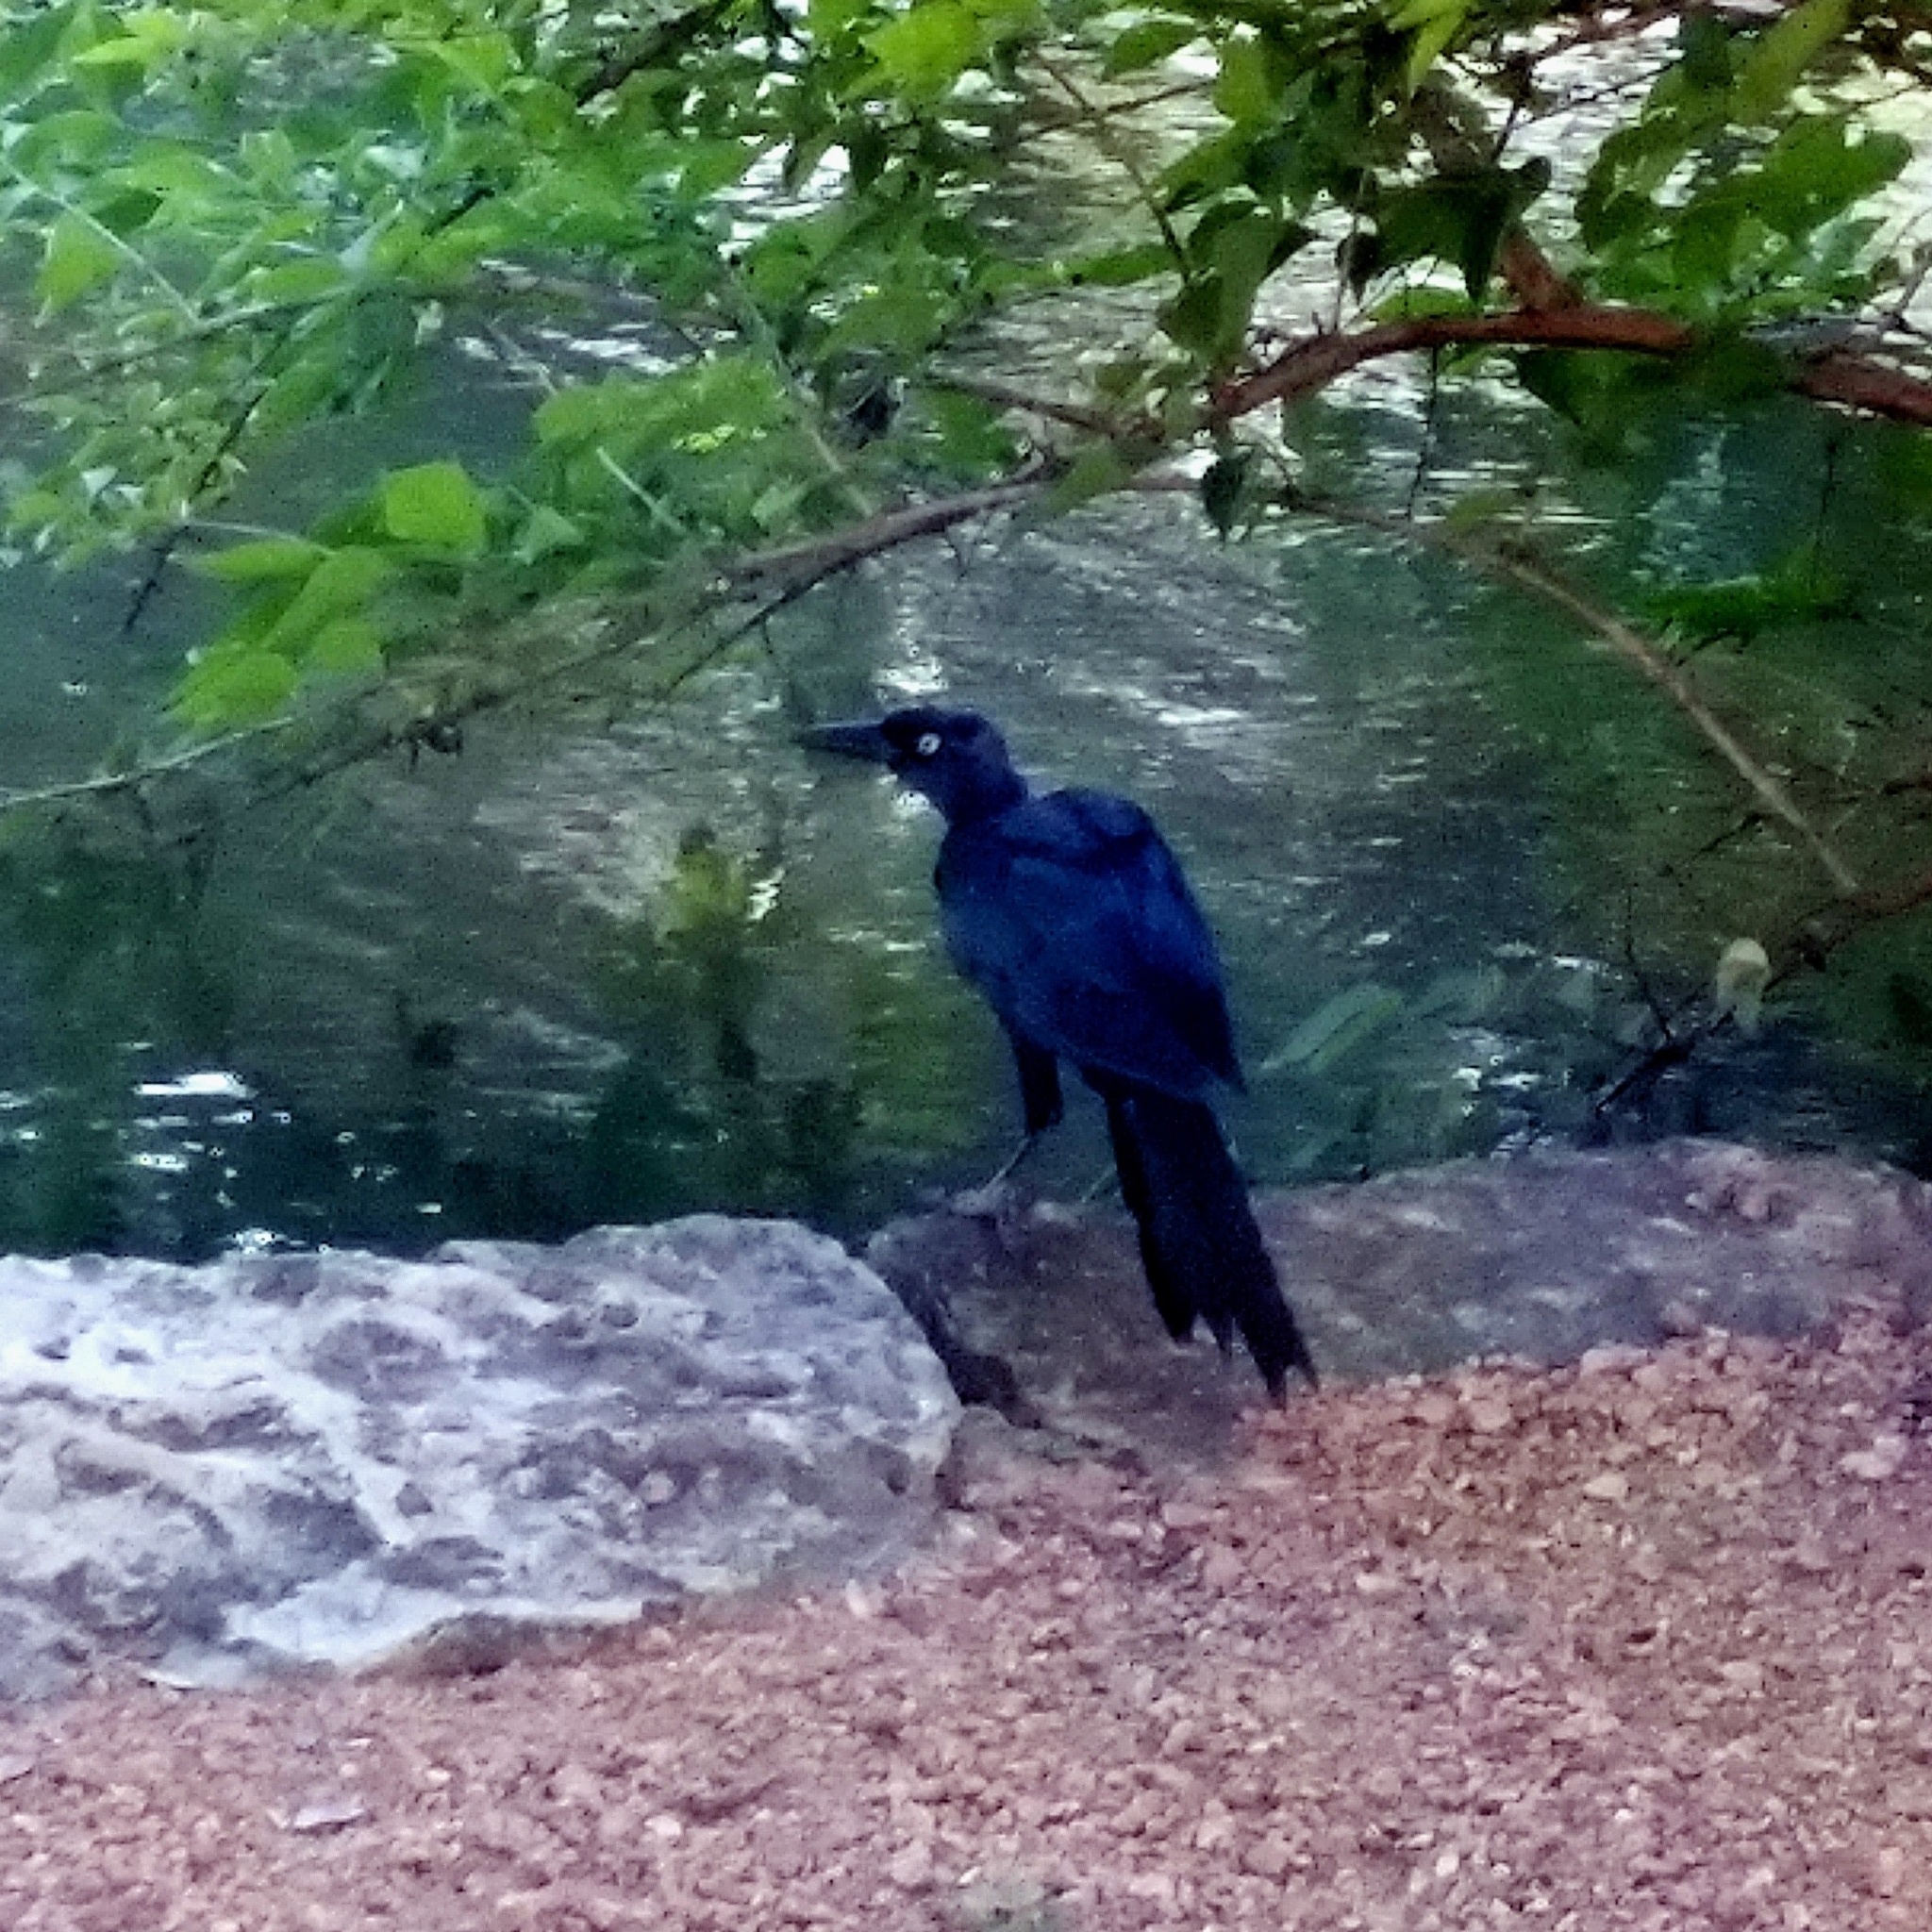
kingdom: Animalia
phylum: Chordata
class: Aves
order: Passeriformes
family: Icteridae
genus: Quiscalus
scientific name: Quiscalus mexicanus
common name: Great-tailed grackle
